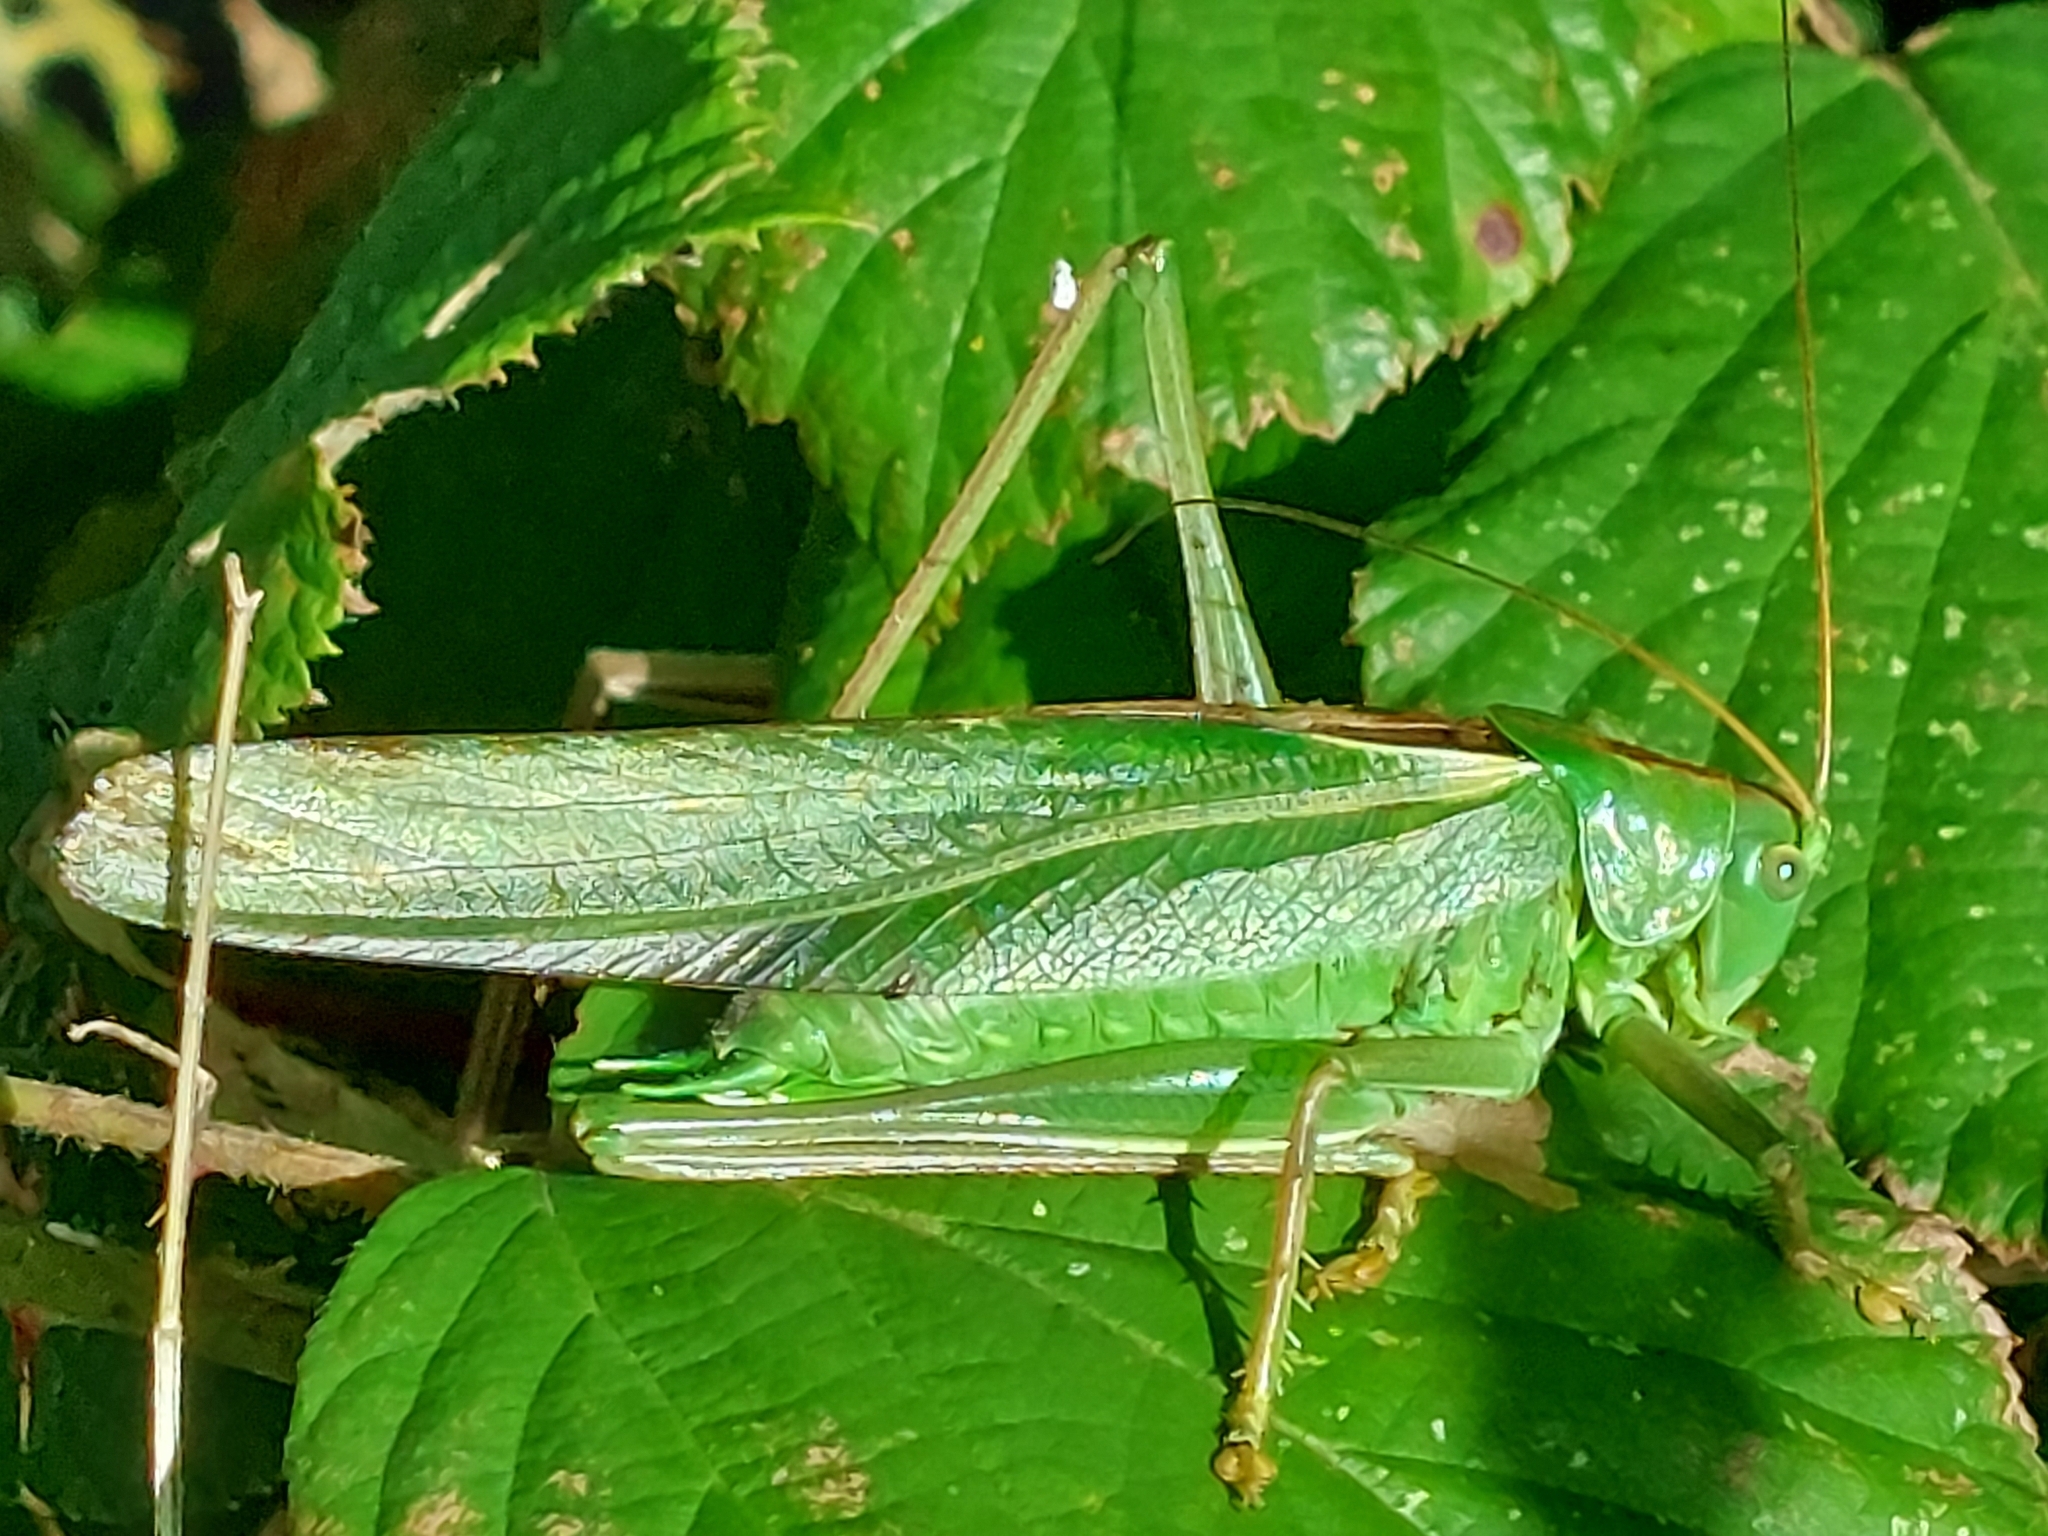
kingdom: Animalia
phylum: Arthropoda
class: Insecta
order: Orthoptera
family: Tettigoniidae
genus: Tettigonia
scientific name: Tettigonia viridissima
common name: Great green bush-cricket
